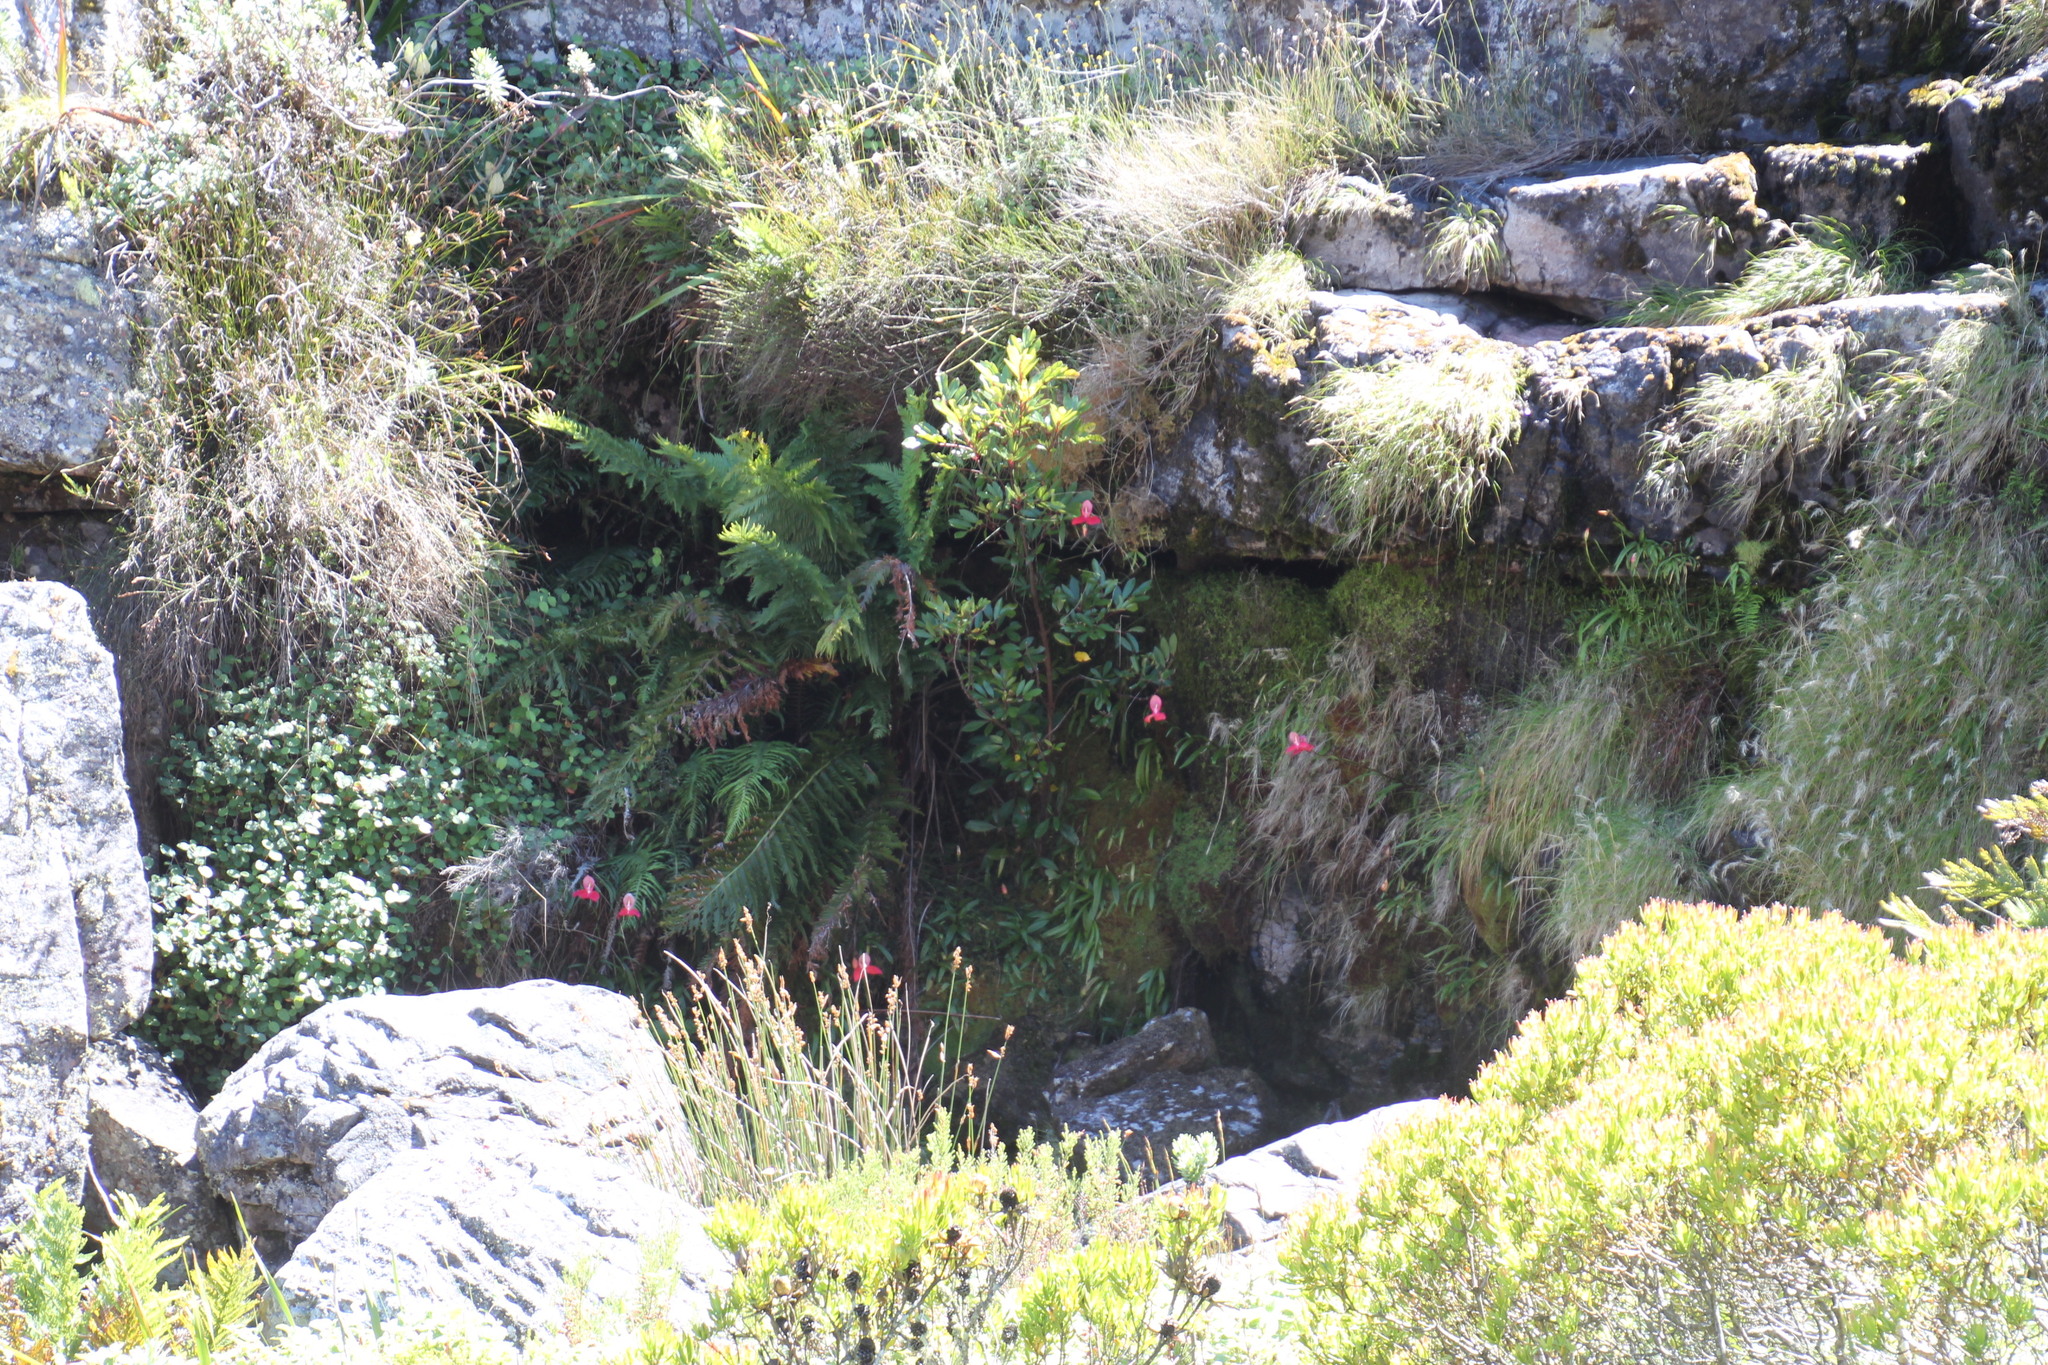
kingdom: Plantae
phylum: Tracheophyta
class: Liliopsida
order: Asparagales
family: Orchidaceae
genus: Disa
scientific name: Disa uniflora
